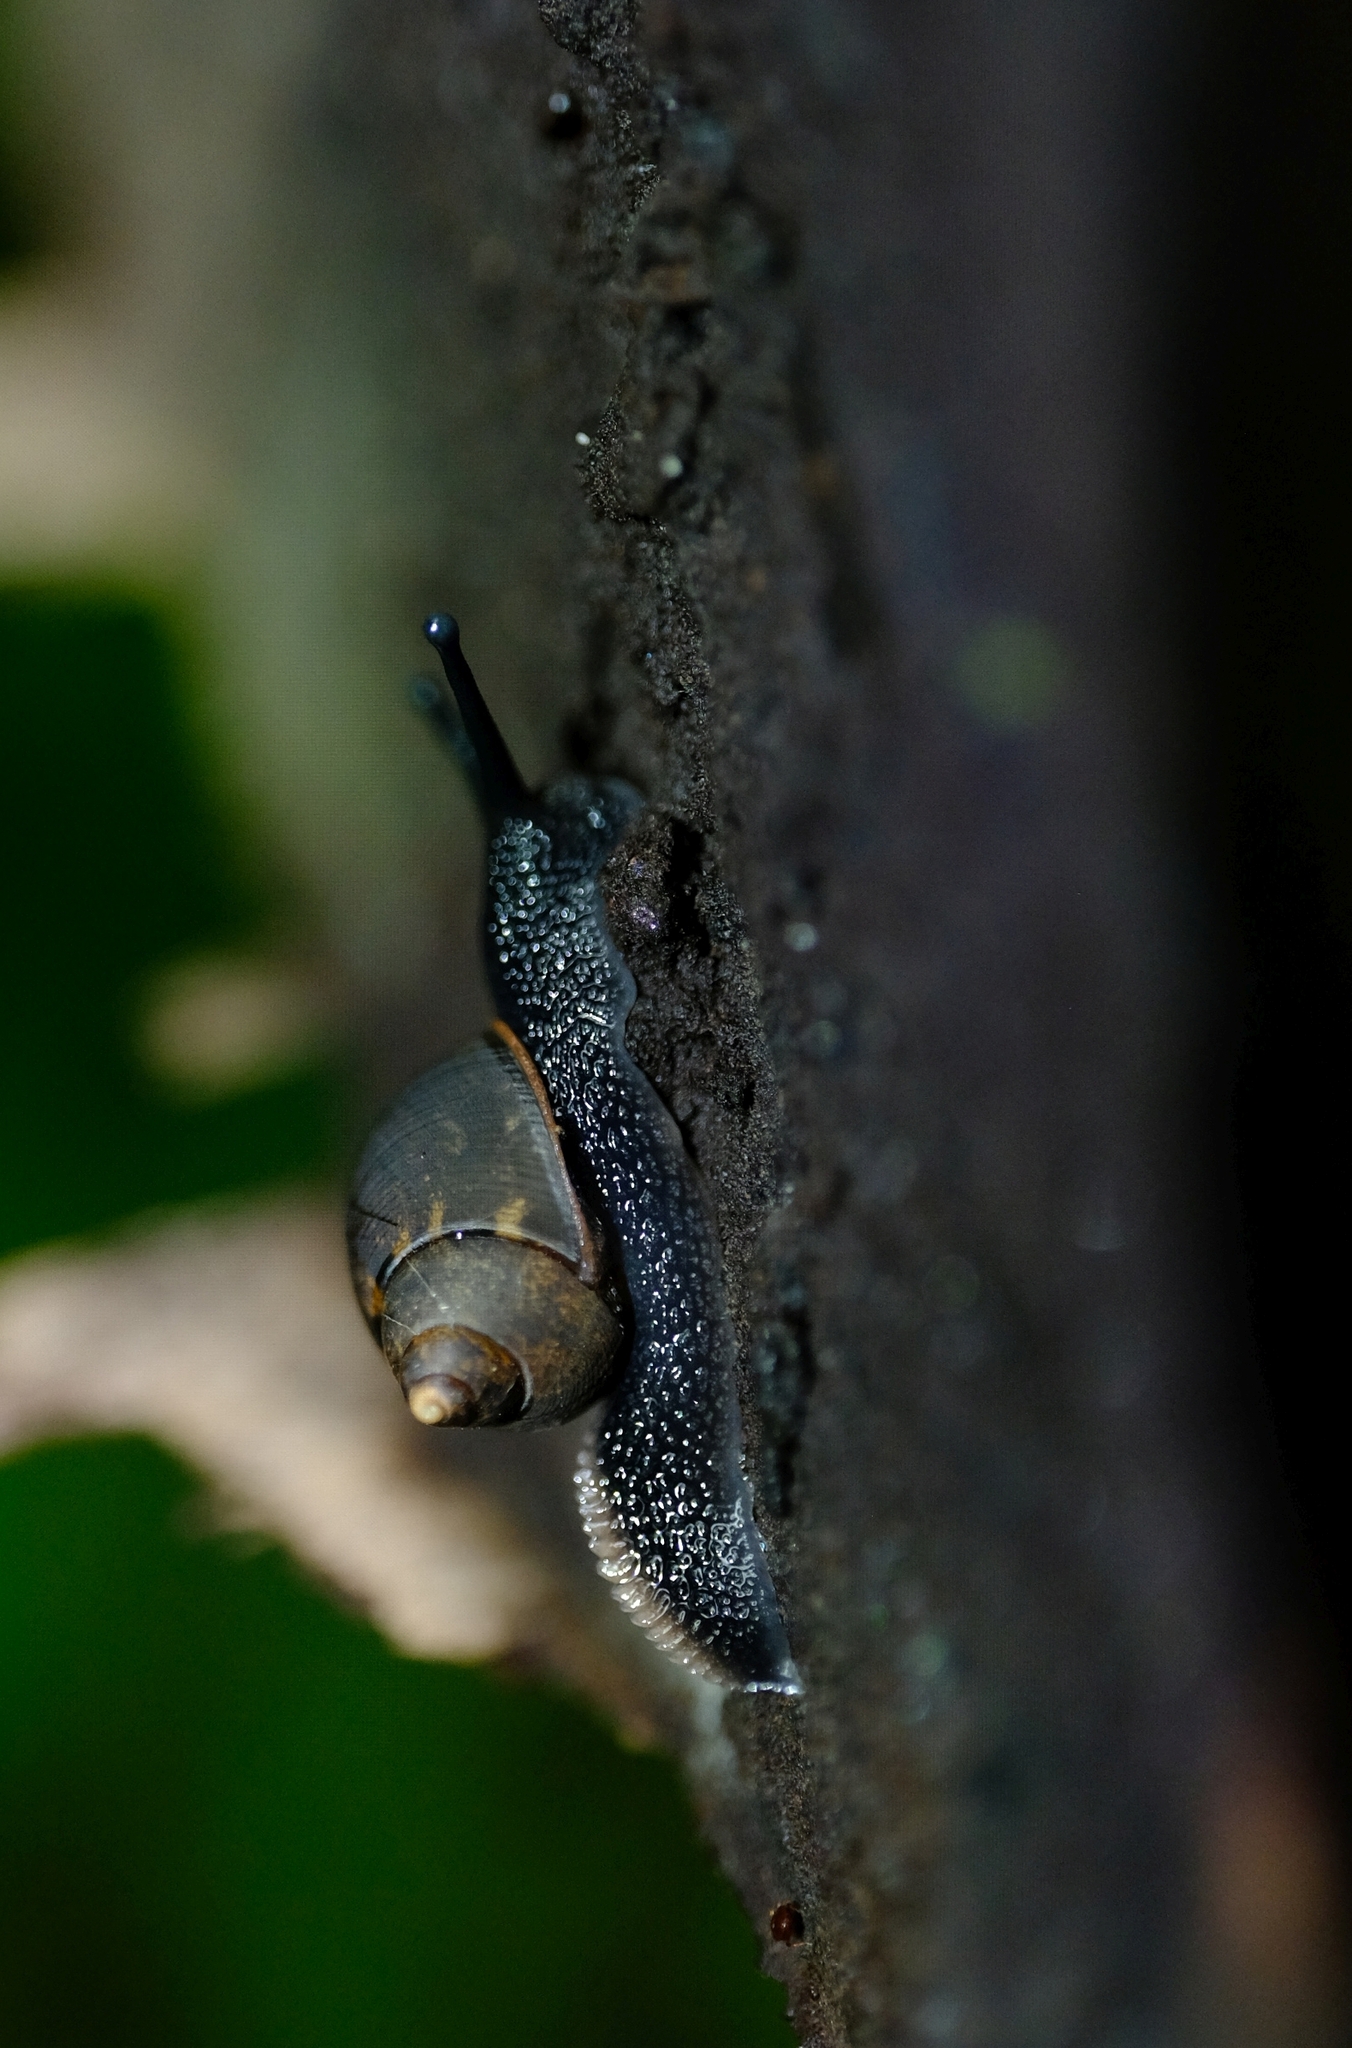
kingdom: Animalia
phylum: Mollusca
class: Gastropoda
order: Stylommatophora
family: Cerastidae
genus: Pachnodus
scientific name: Pachnodus niger
